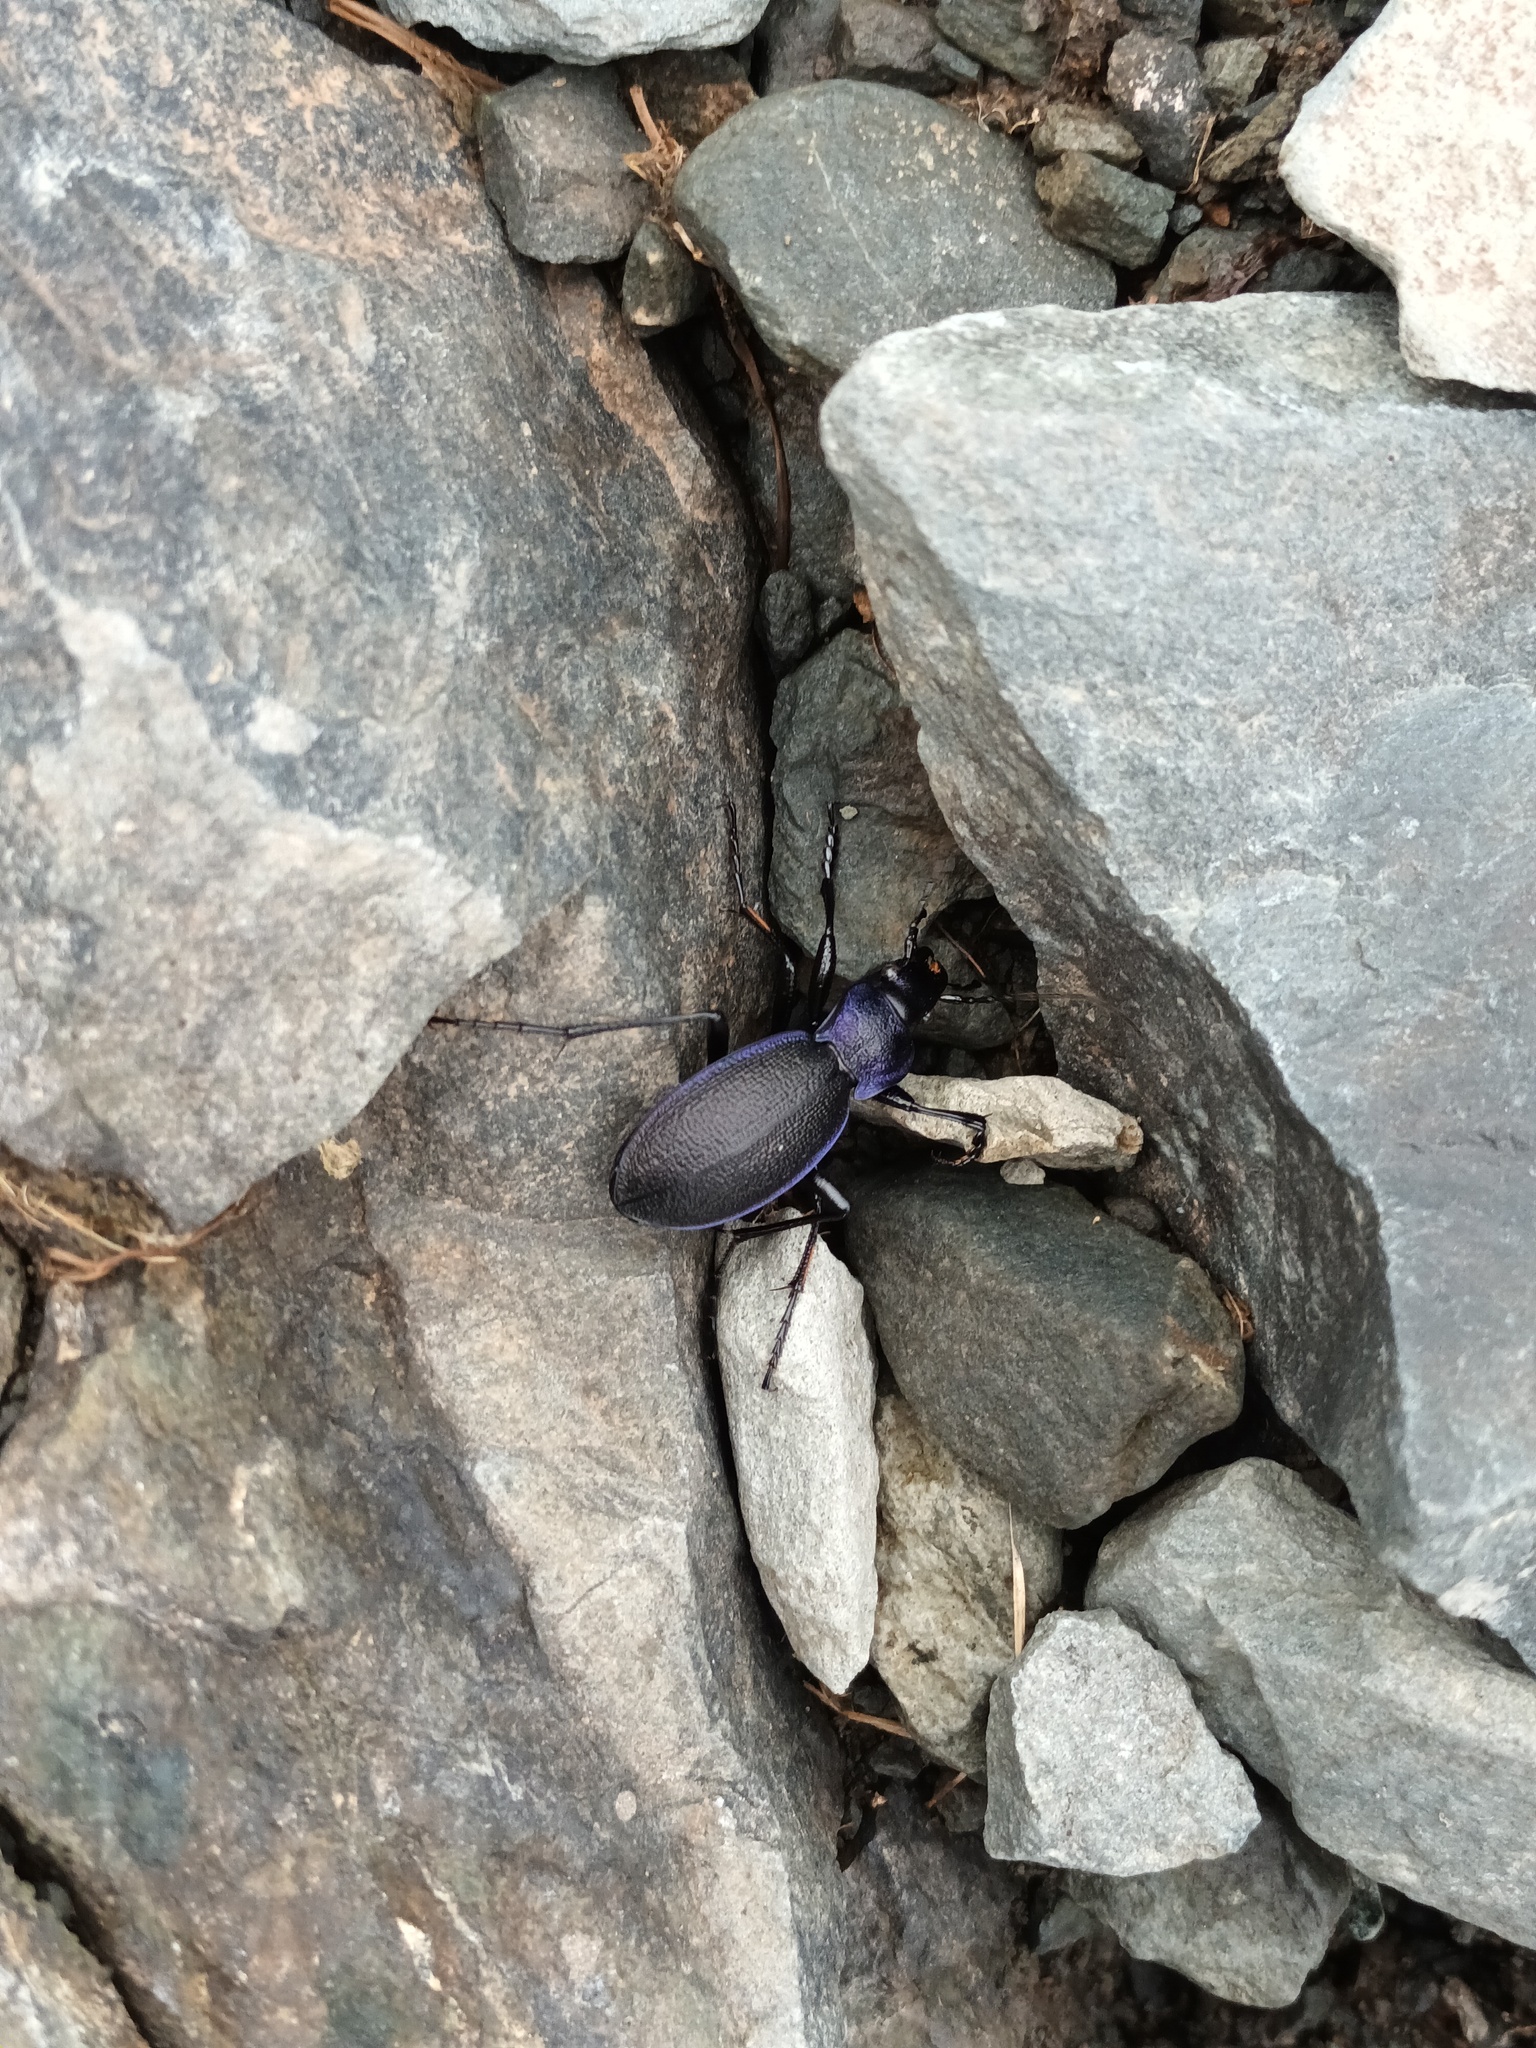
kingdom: Animalia
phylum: Arthropoda
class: Insecta
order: Coleoptera
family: Carabidae
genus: Carabus
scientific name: Carabus problematicus
